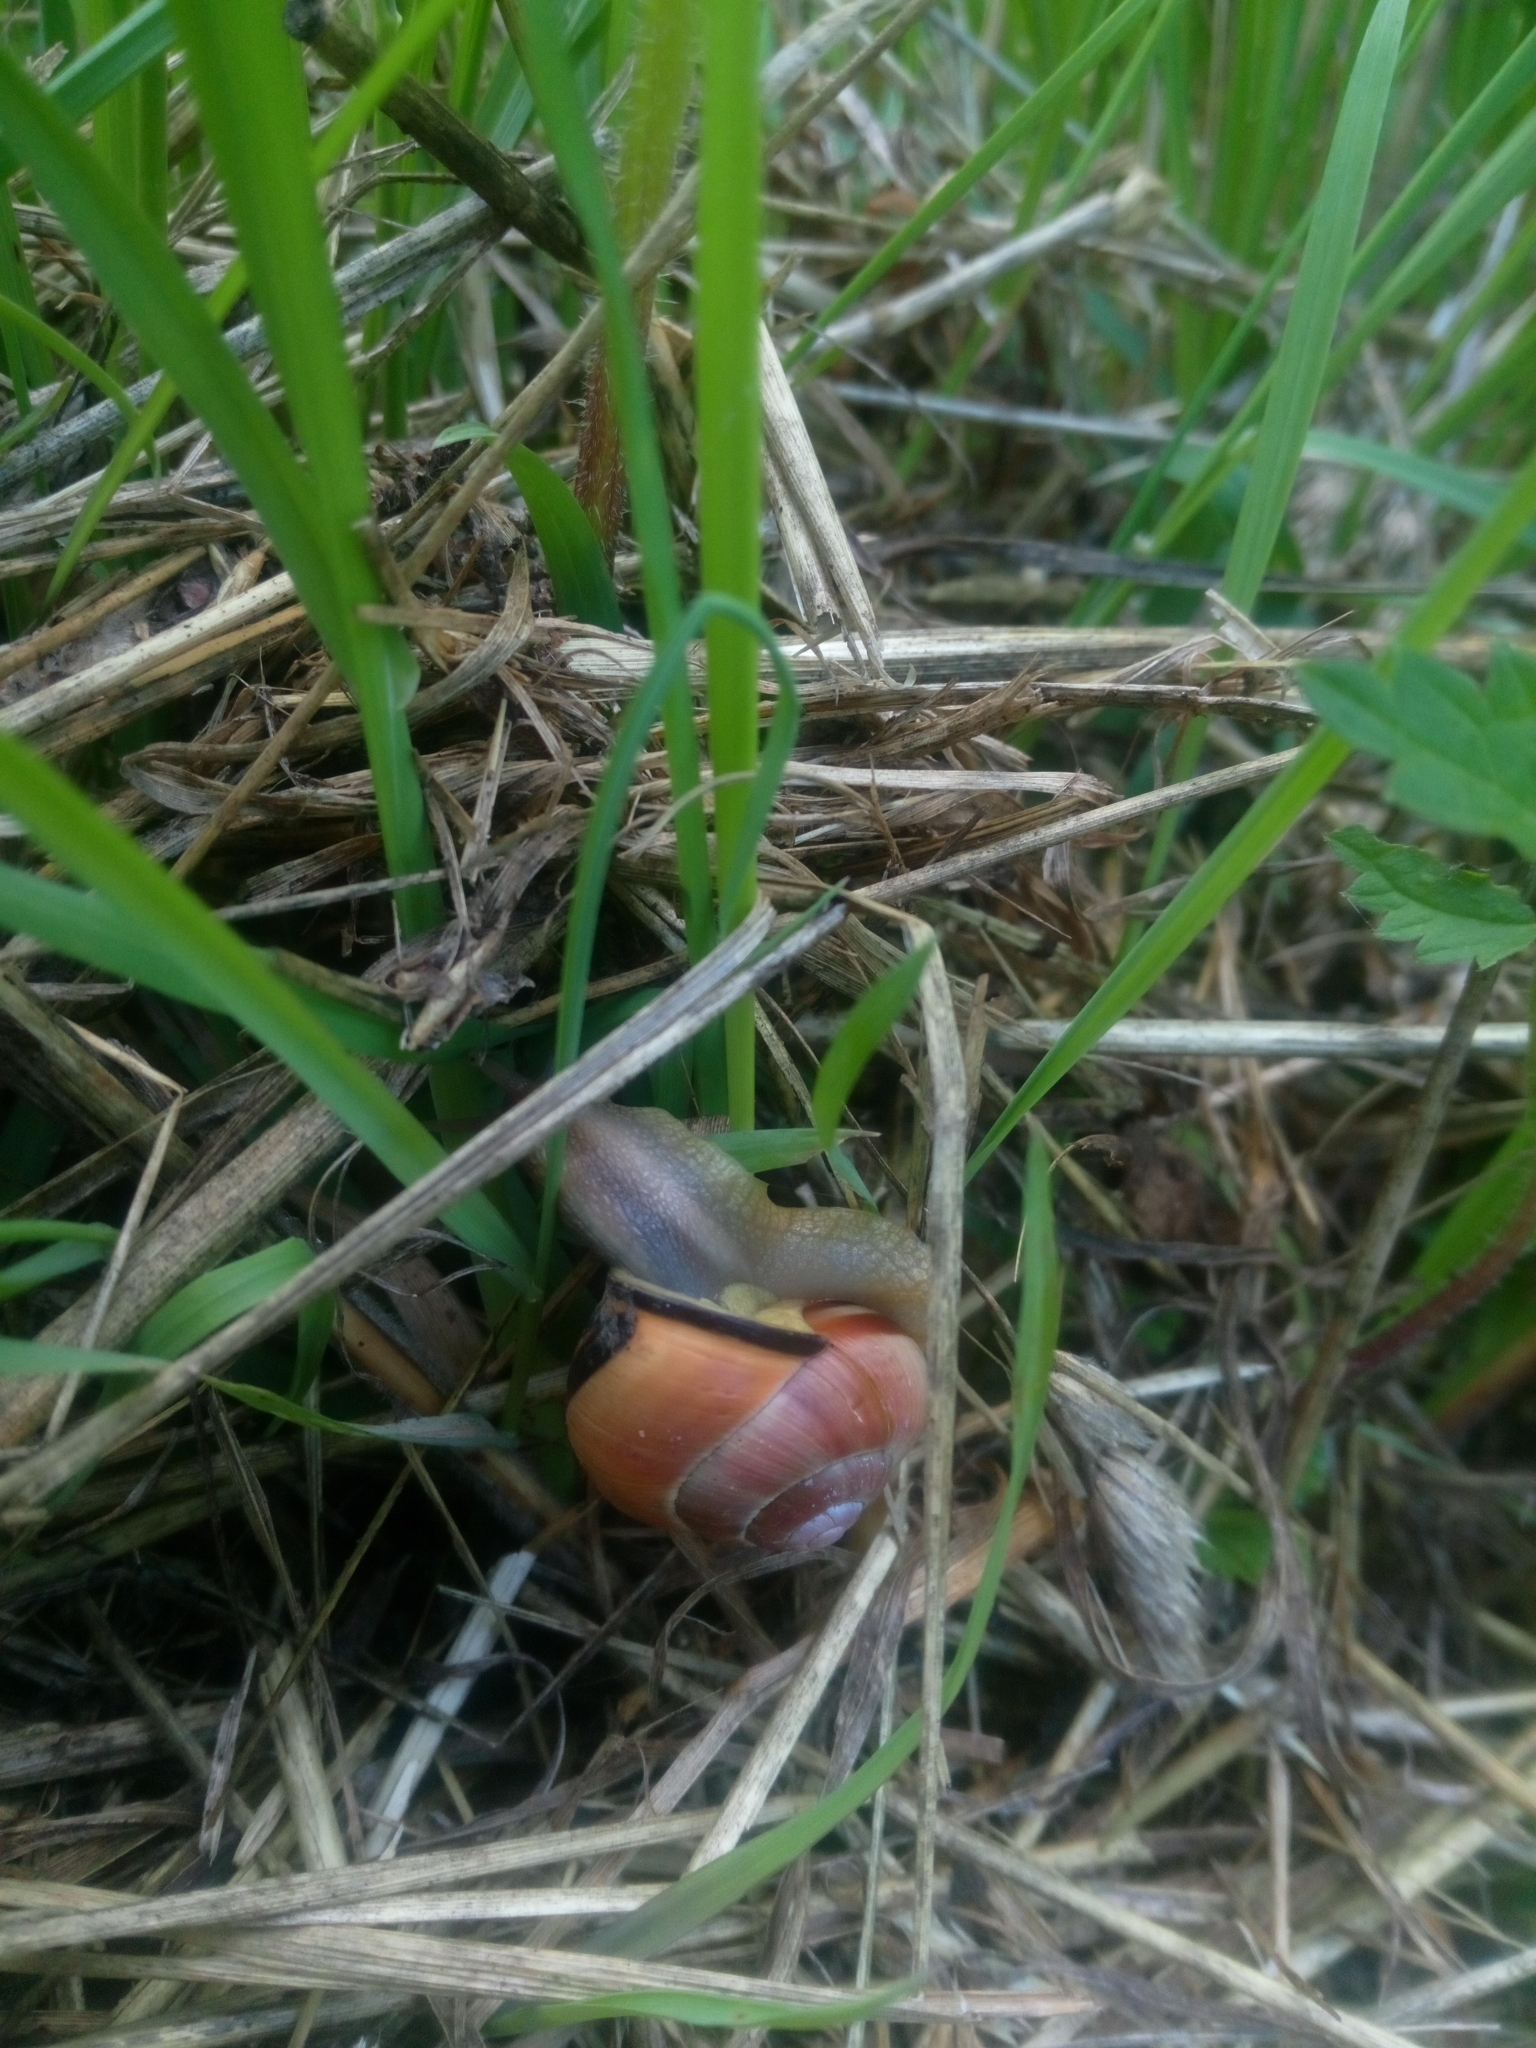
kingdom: Animalia
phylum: Mollusca
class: Gastropoda
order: Stylommatophora
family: Helicidae
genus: Cepaea
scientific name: Cepaea nemoralis
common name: Grovesnail
